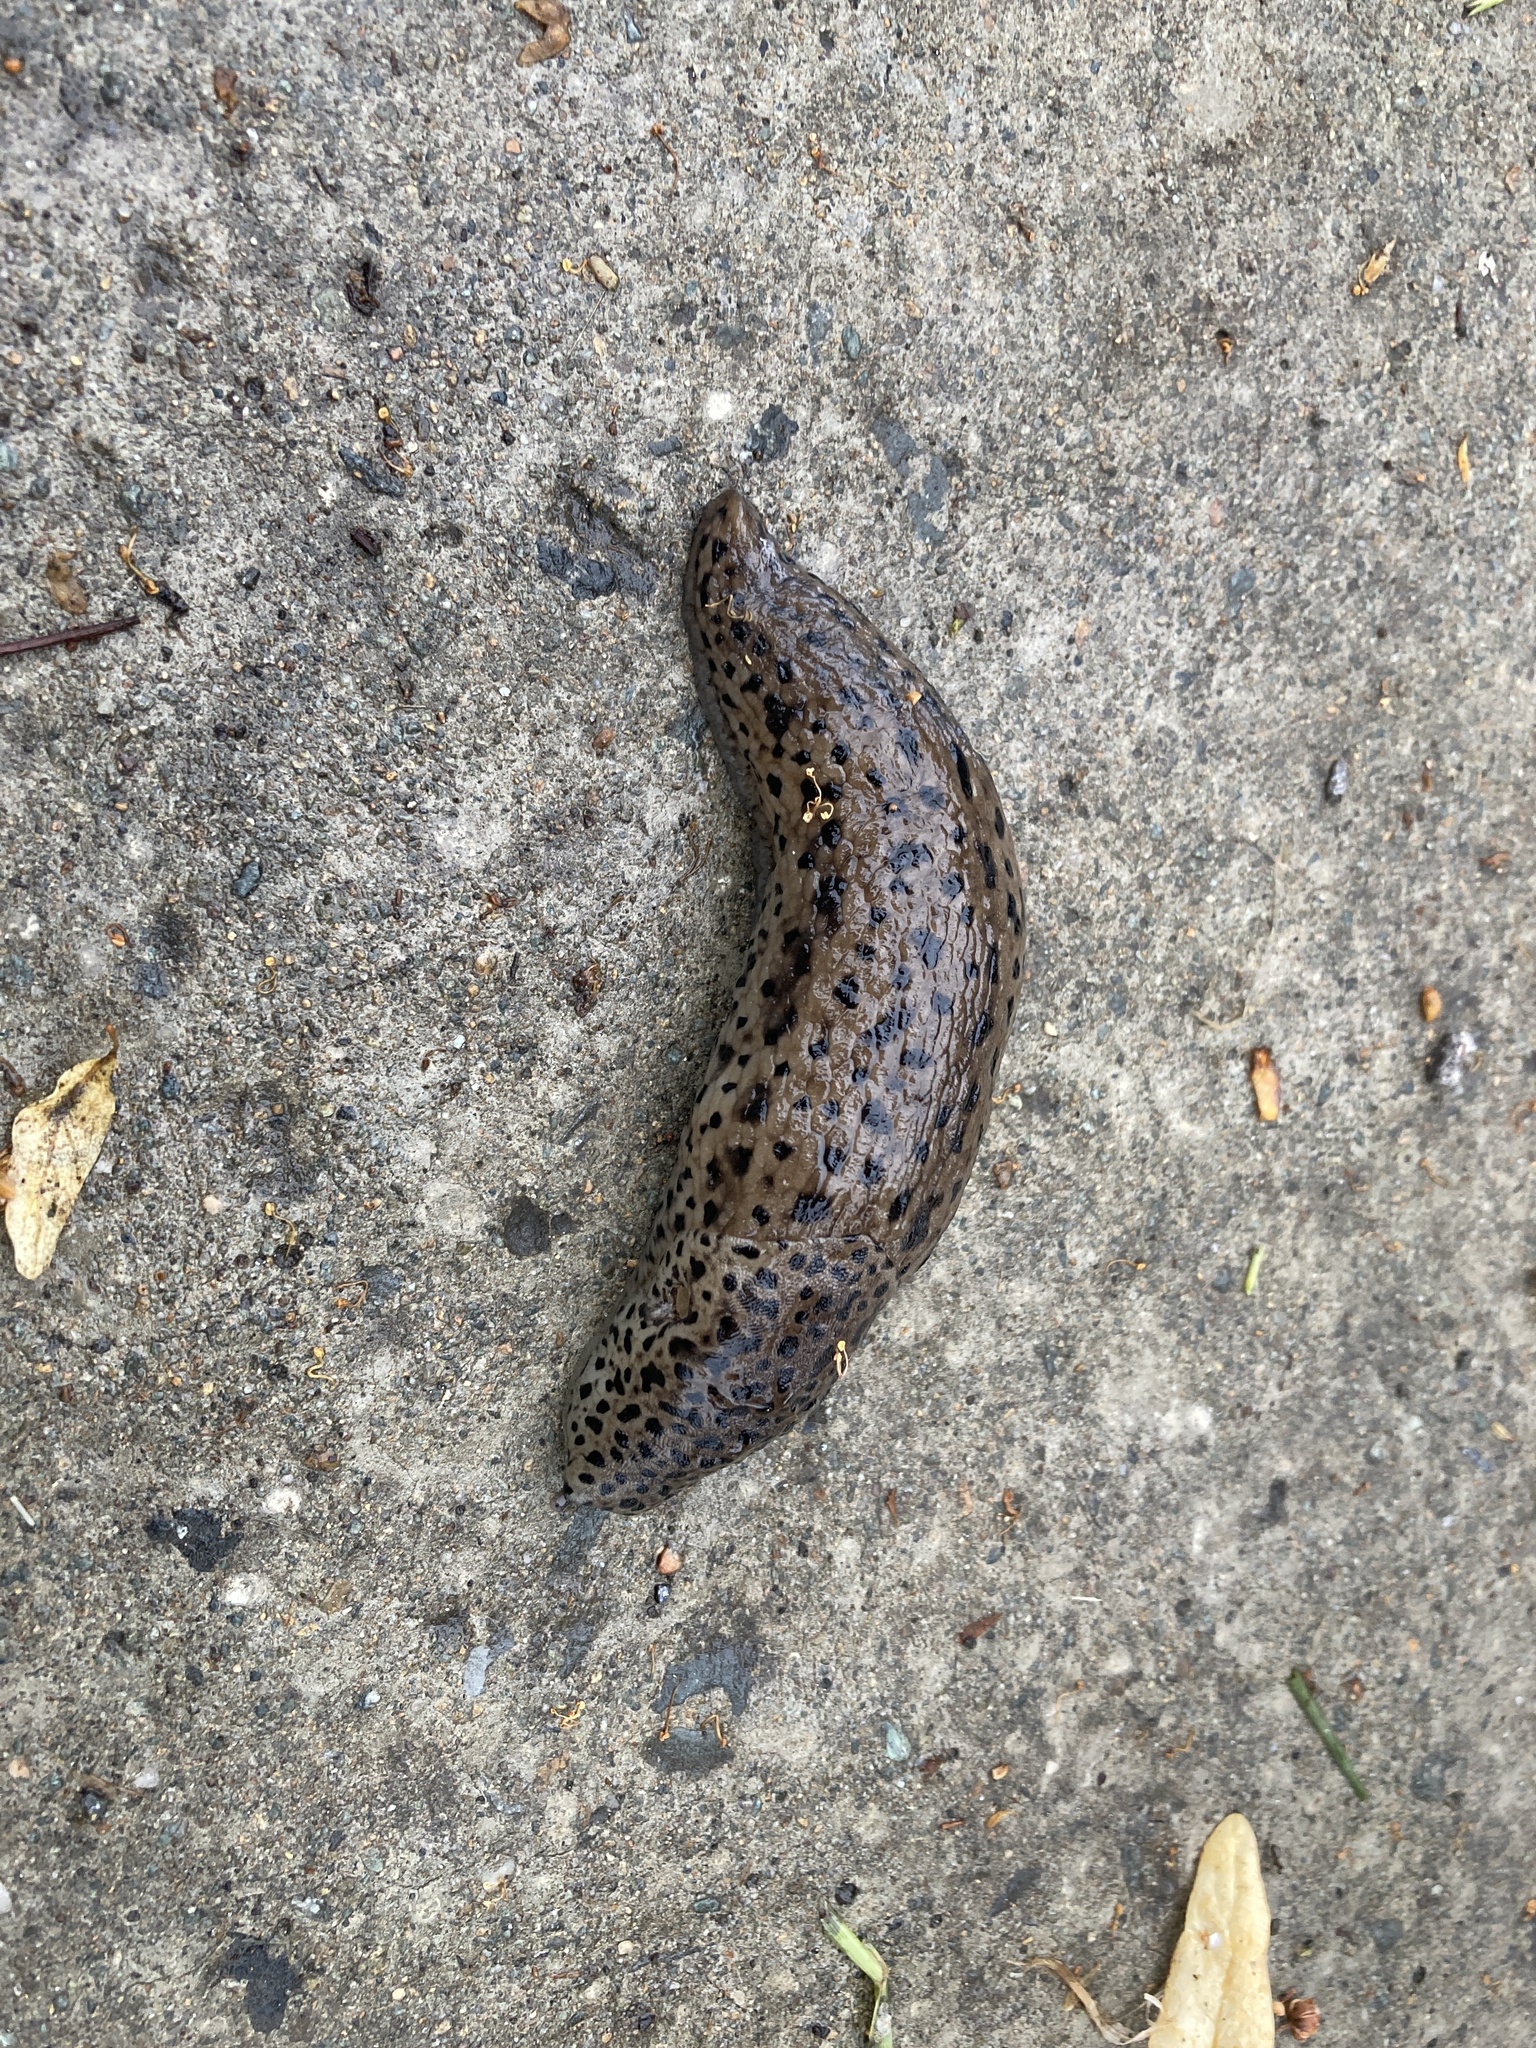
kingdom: Animalia
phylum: Mollusca
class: Gastropoda
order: Stylommatophora
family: Limacidae
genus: Limax
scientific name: Limax maximus
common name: Great grey slug
